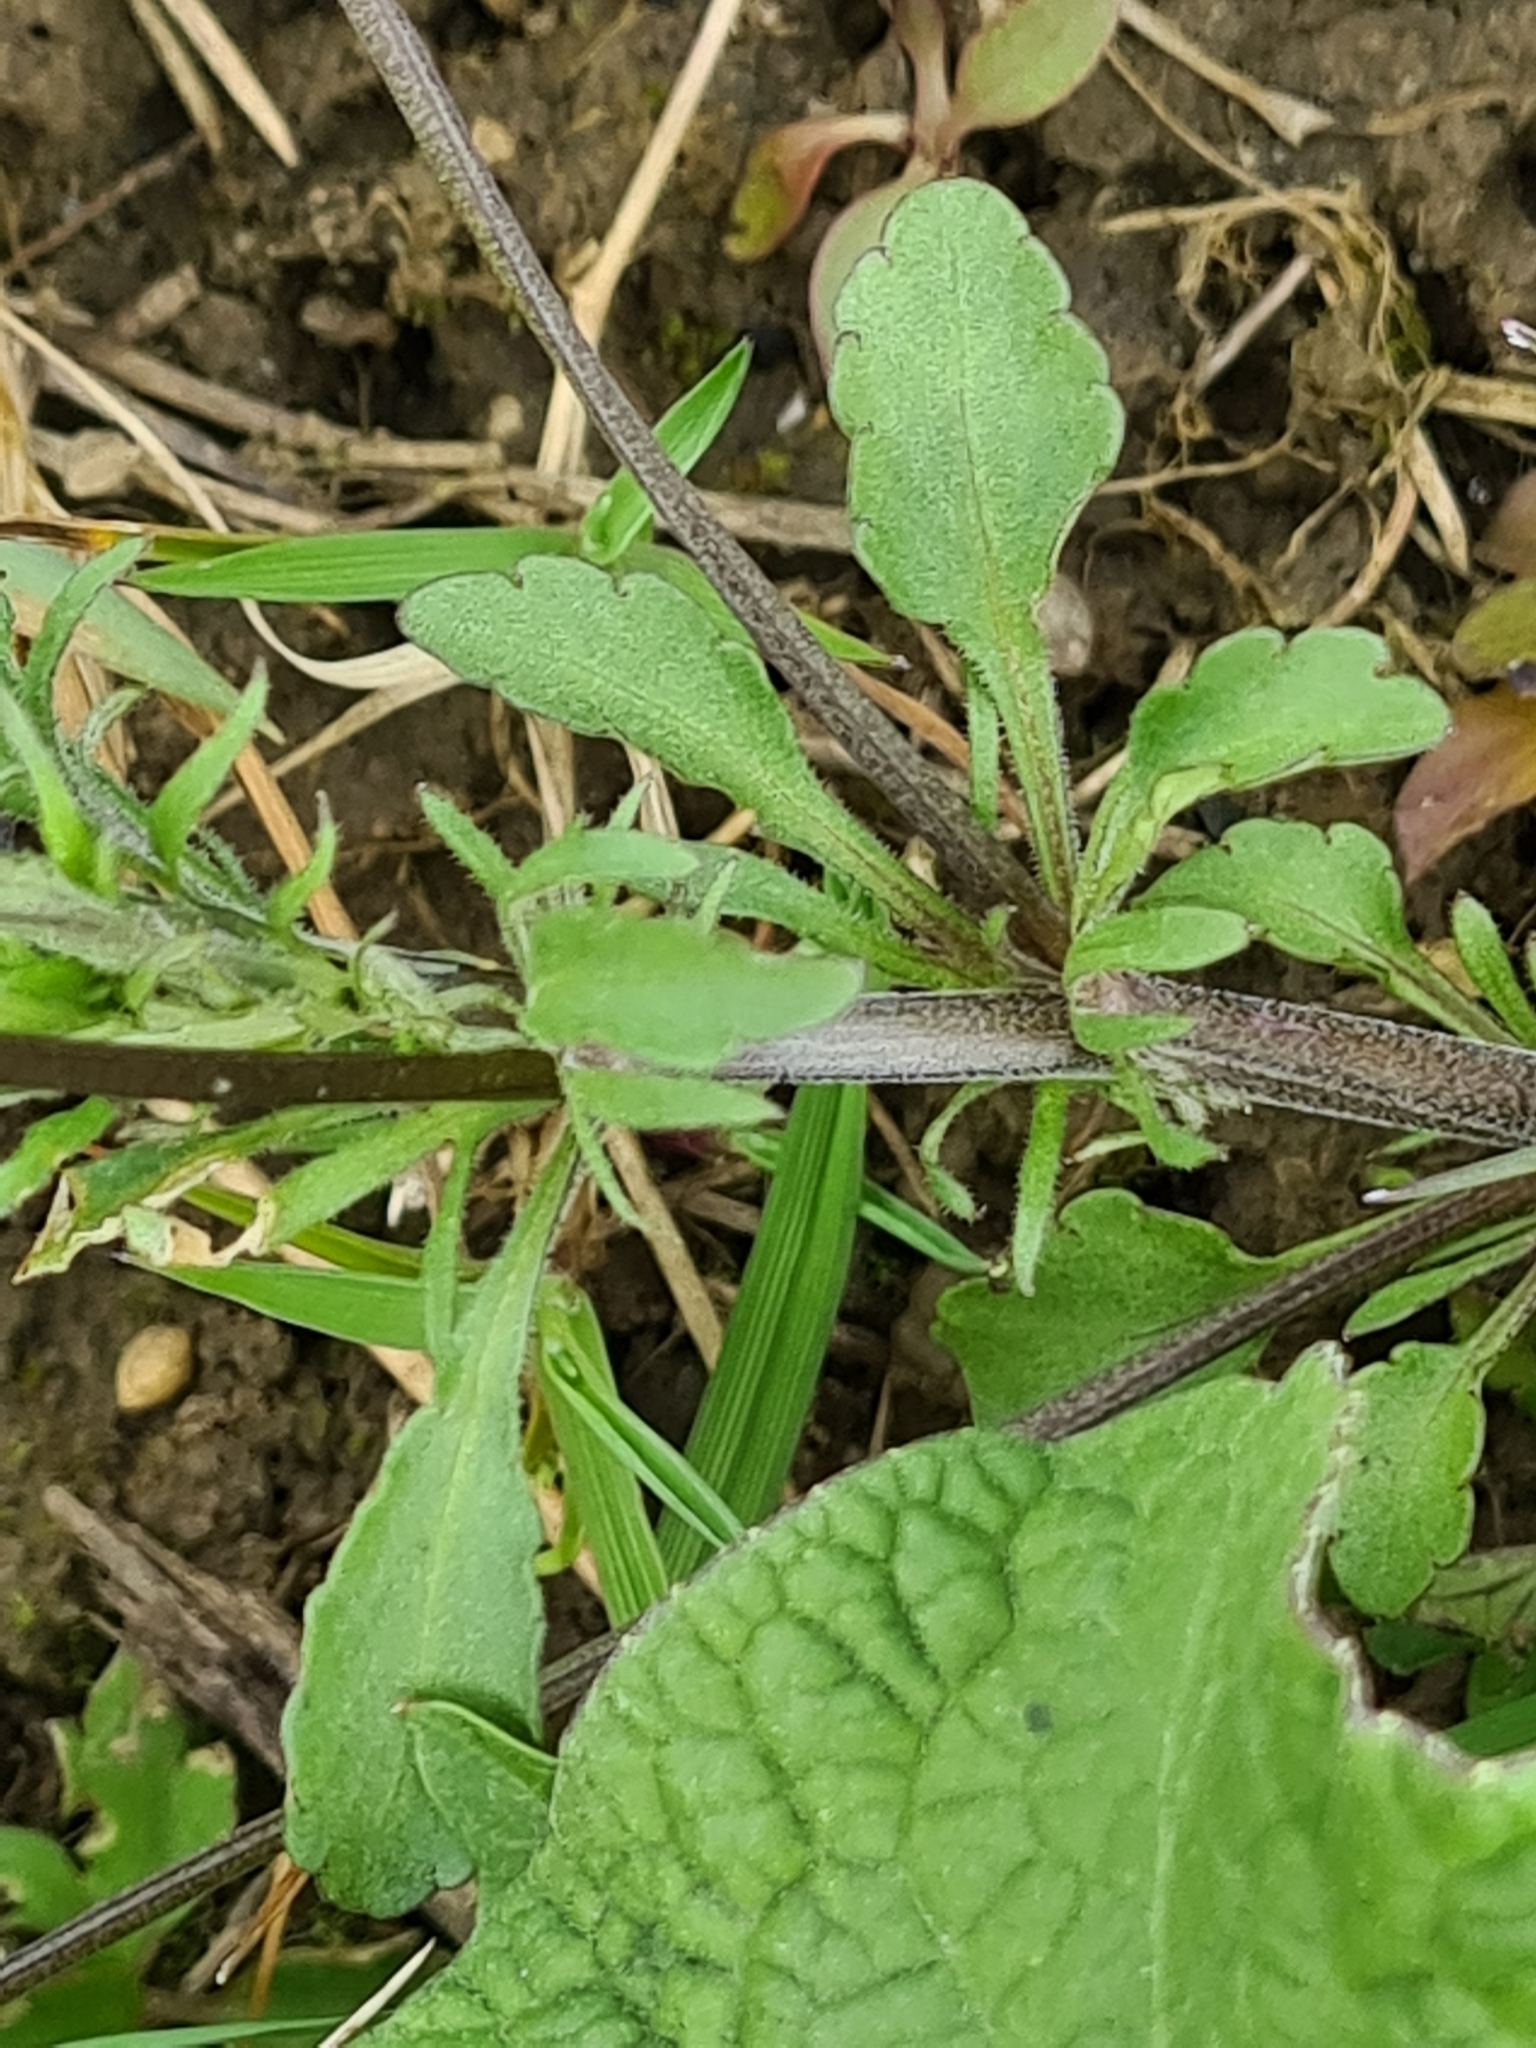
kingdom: Plantae
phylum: Tracheophyta
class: Magnoliopsida
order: Malpighiales
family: Violaceae
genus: Viola
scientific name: Viola arvensis
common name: Field pansy
